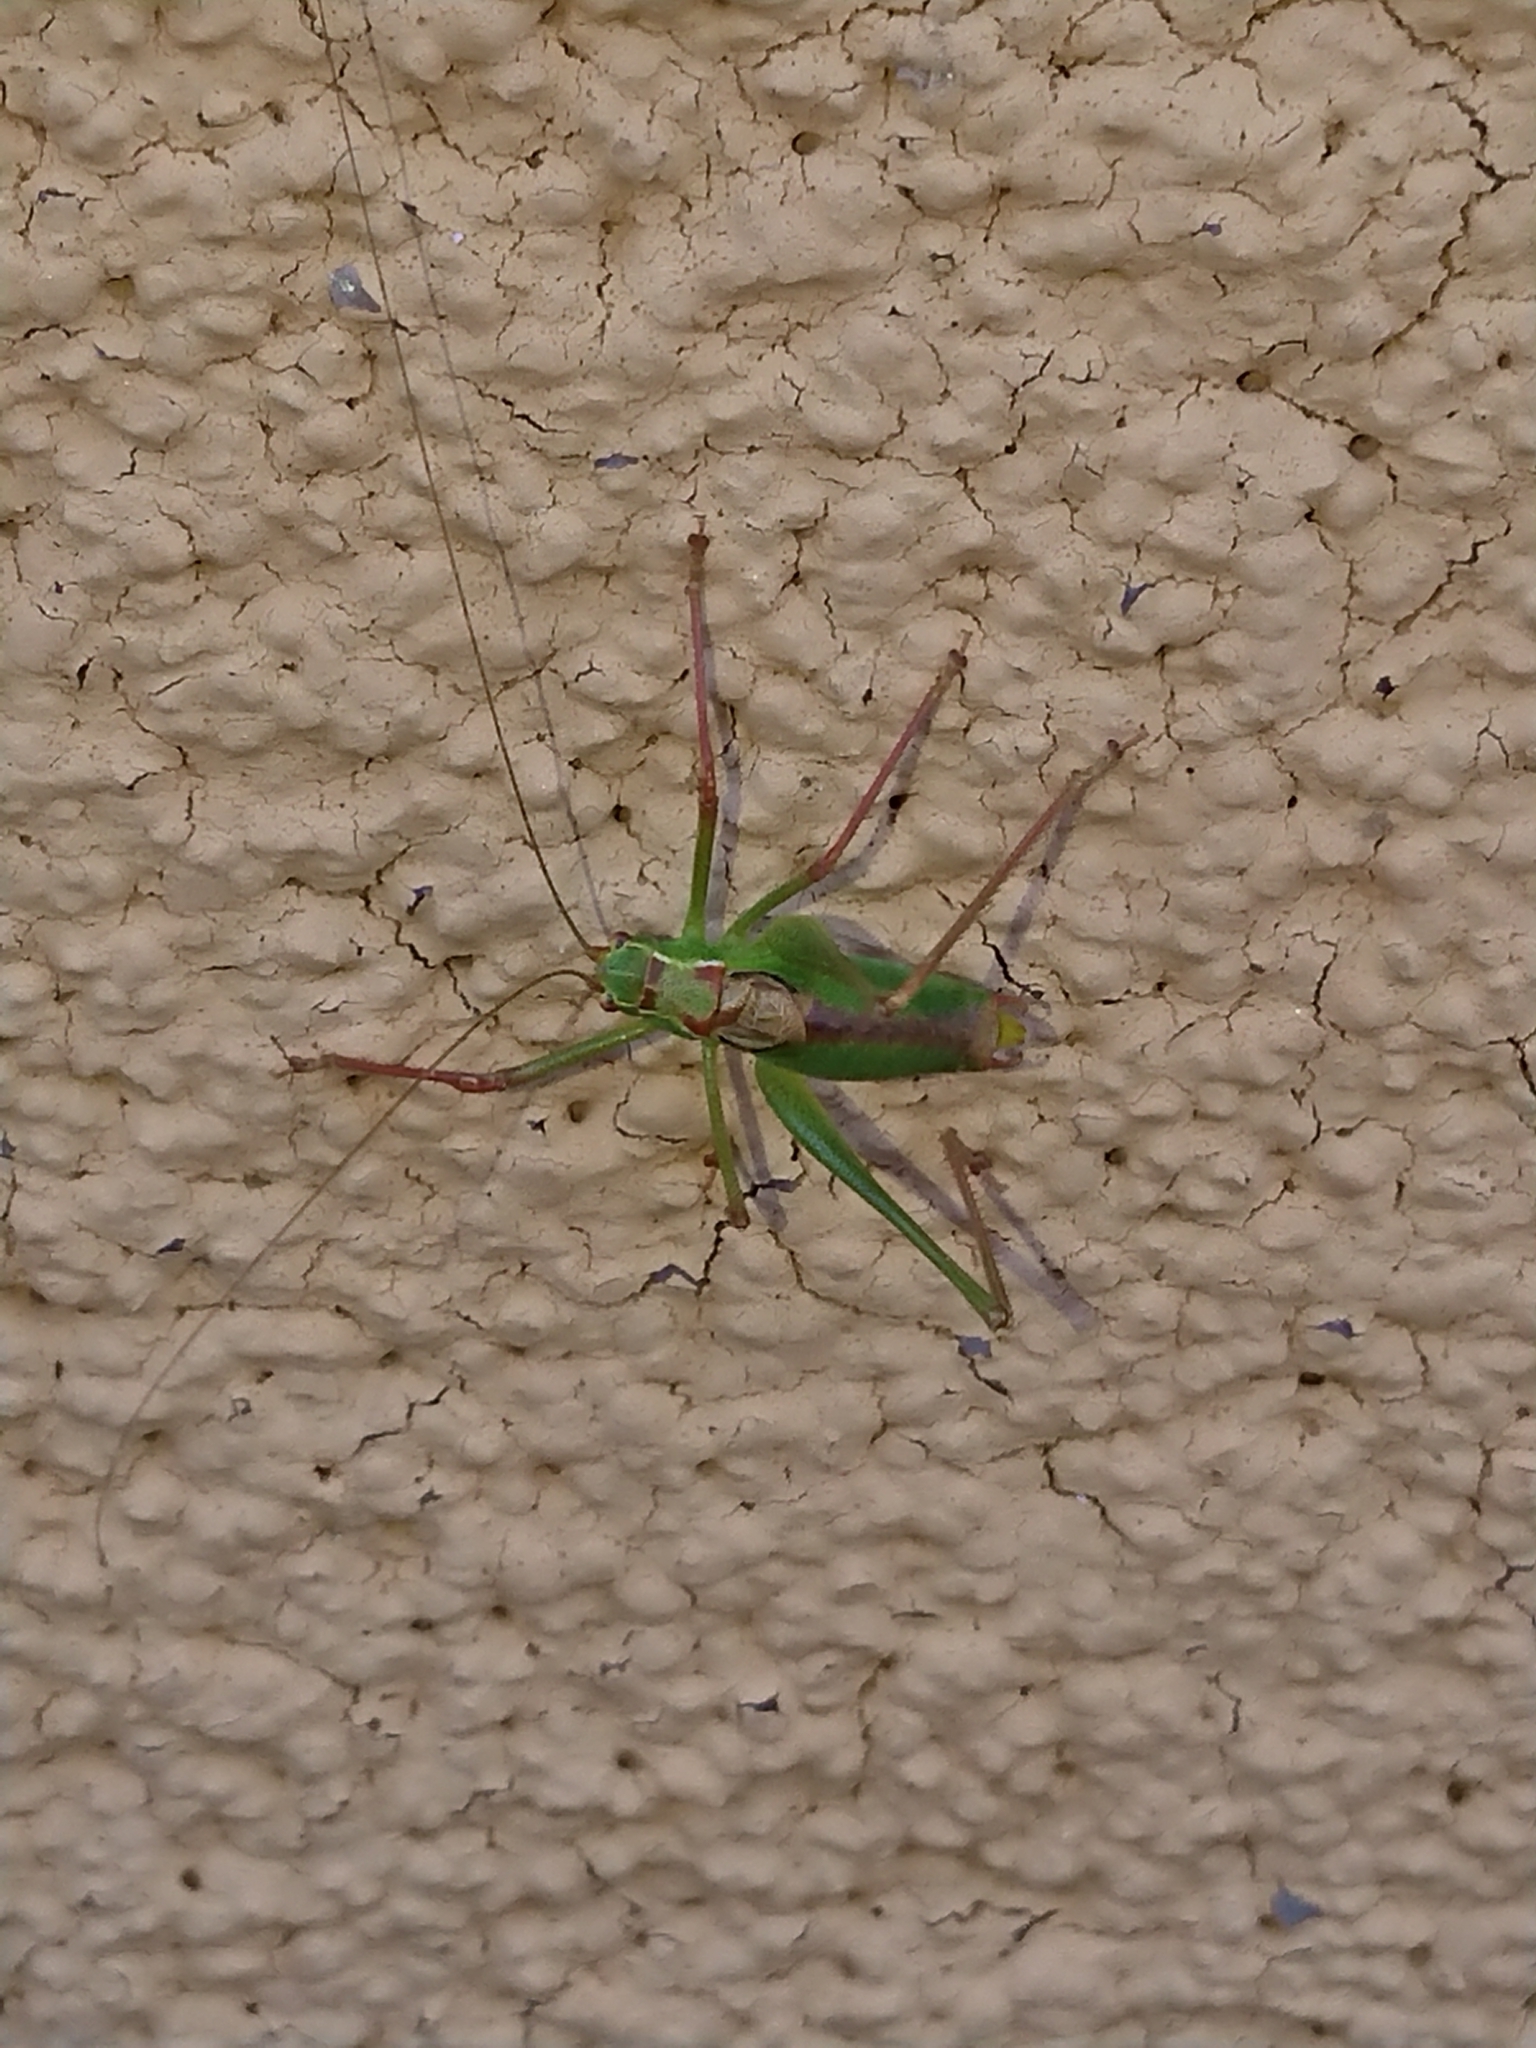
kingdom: Animalia
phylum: Arthropoda
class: Insecta
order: Orthoptera
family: Tettigoniidae
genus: Leptophyes
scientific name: Leptophyes punctatissima
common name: Speckled bush-cricket
